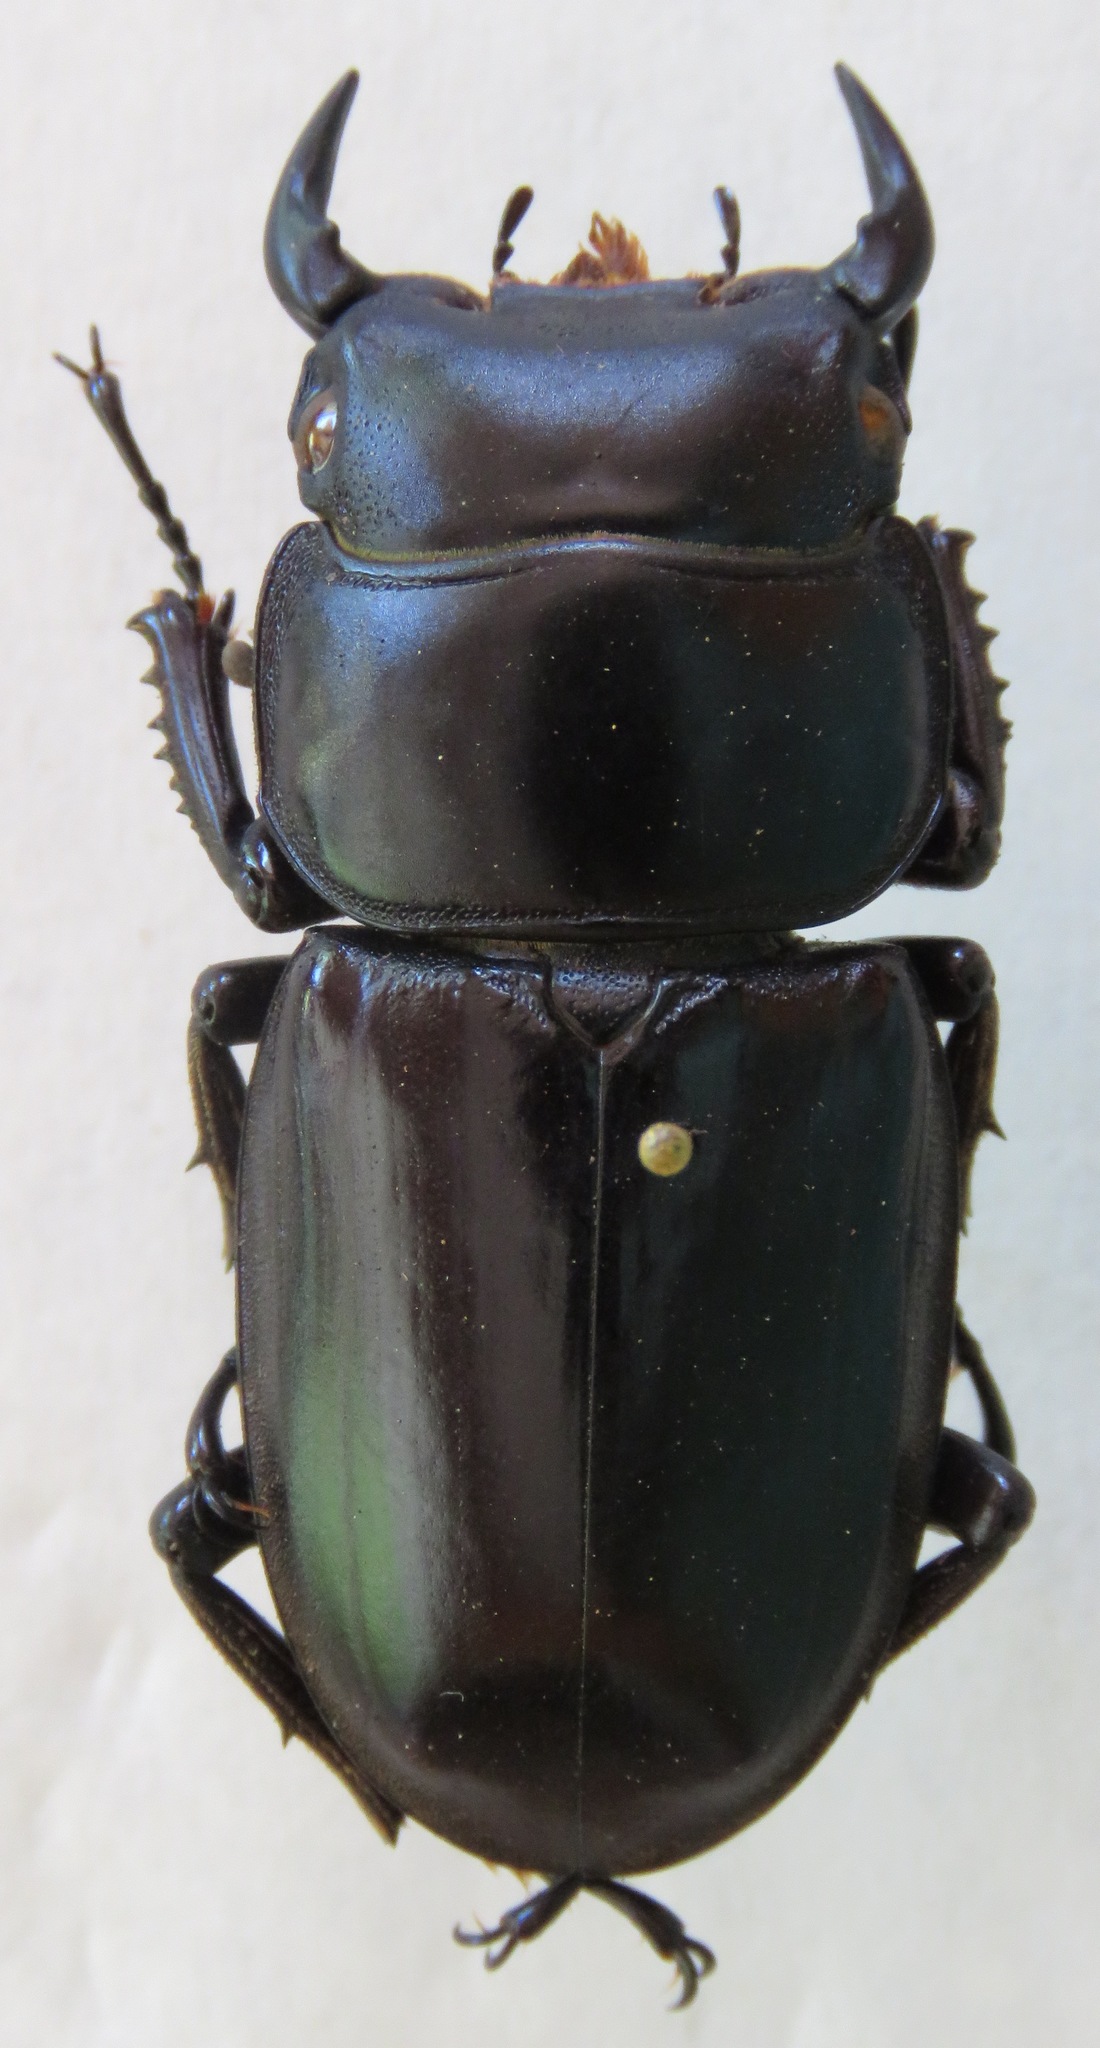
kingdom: Animalia
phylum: Arthropoda
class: Insecta
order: Coleoptera
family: Lucanidae
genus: Dorcus
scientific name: Dorcus antaeus
